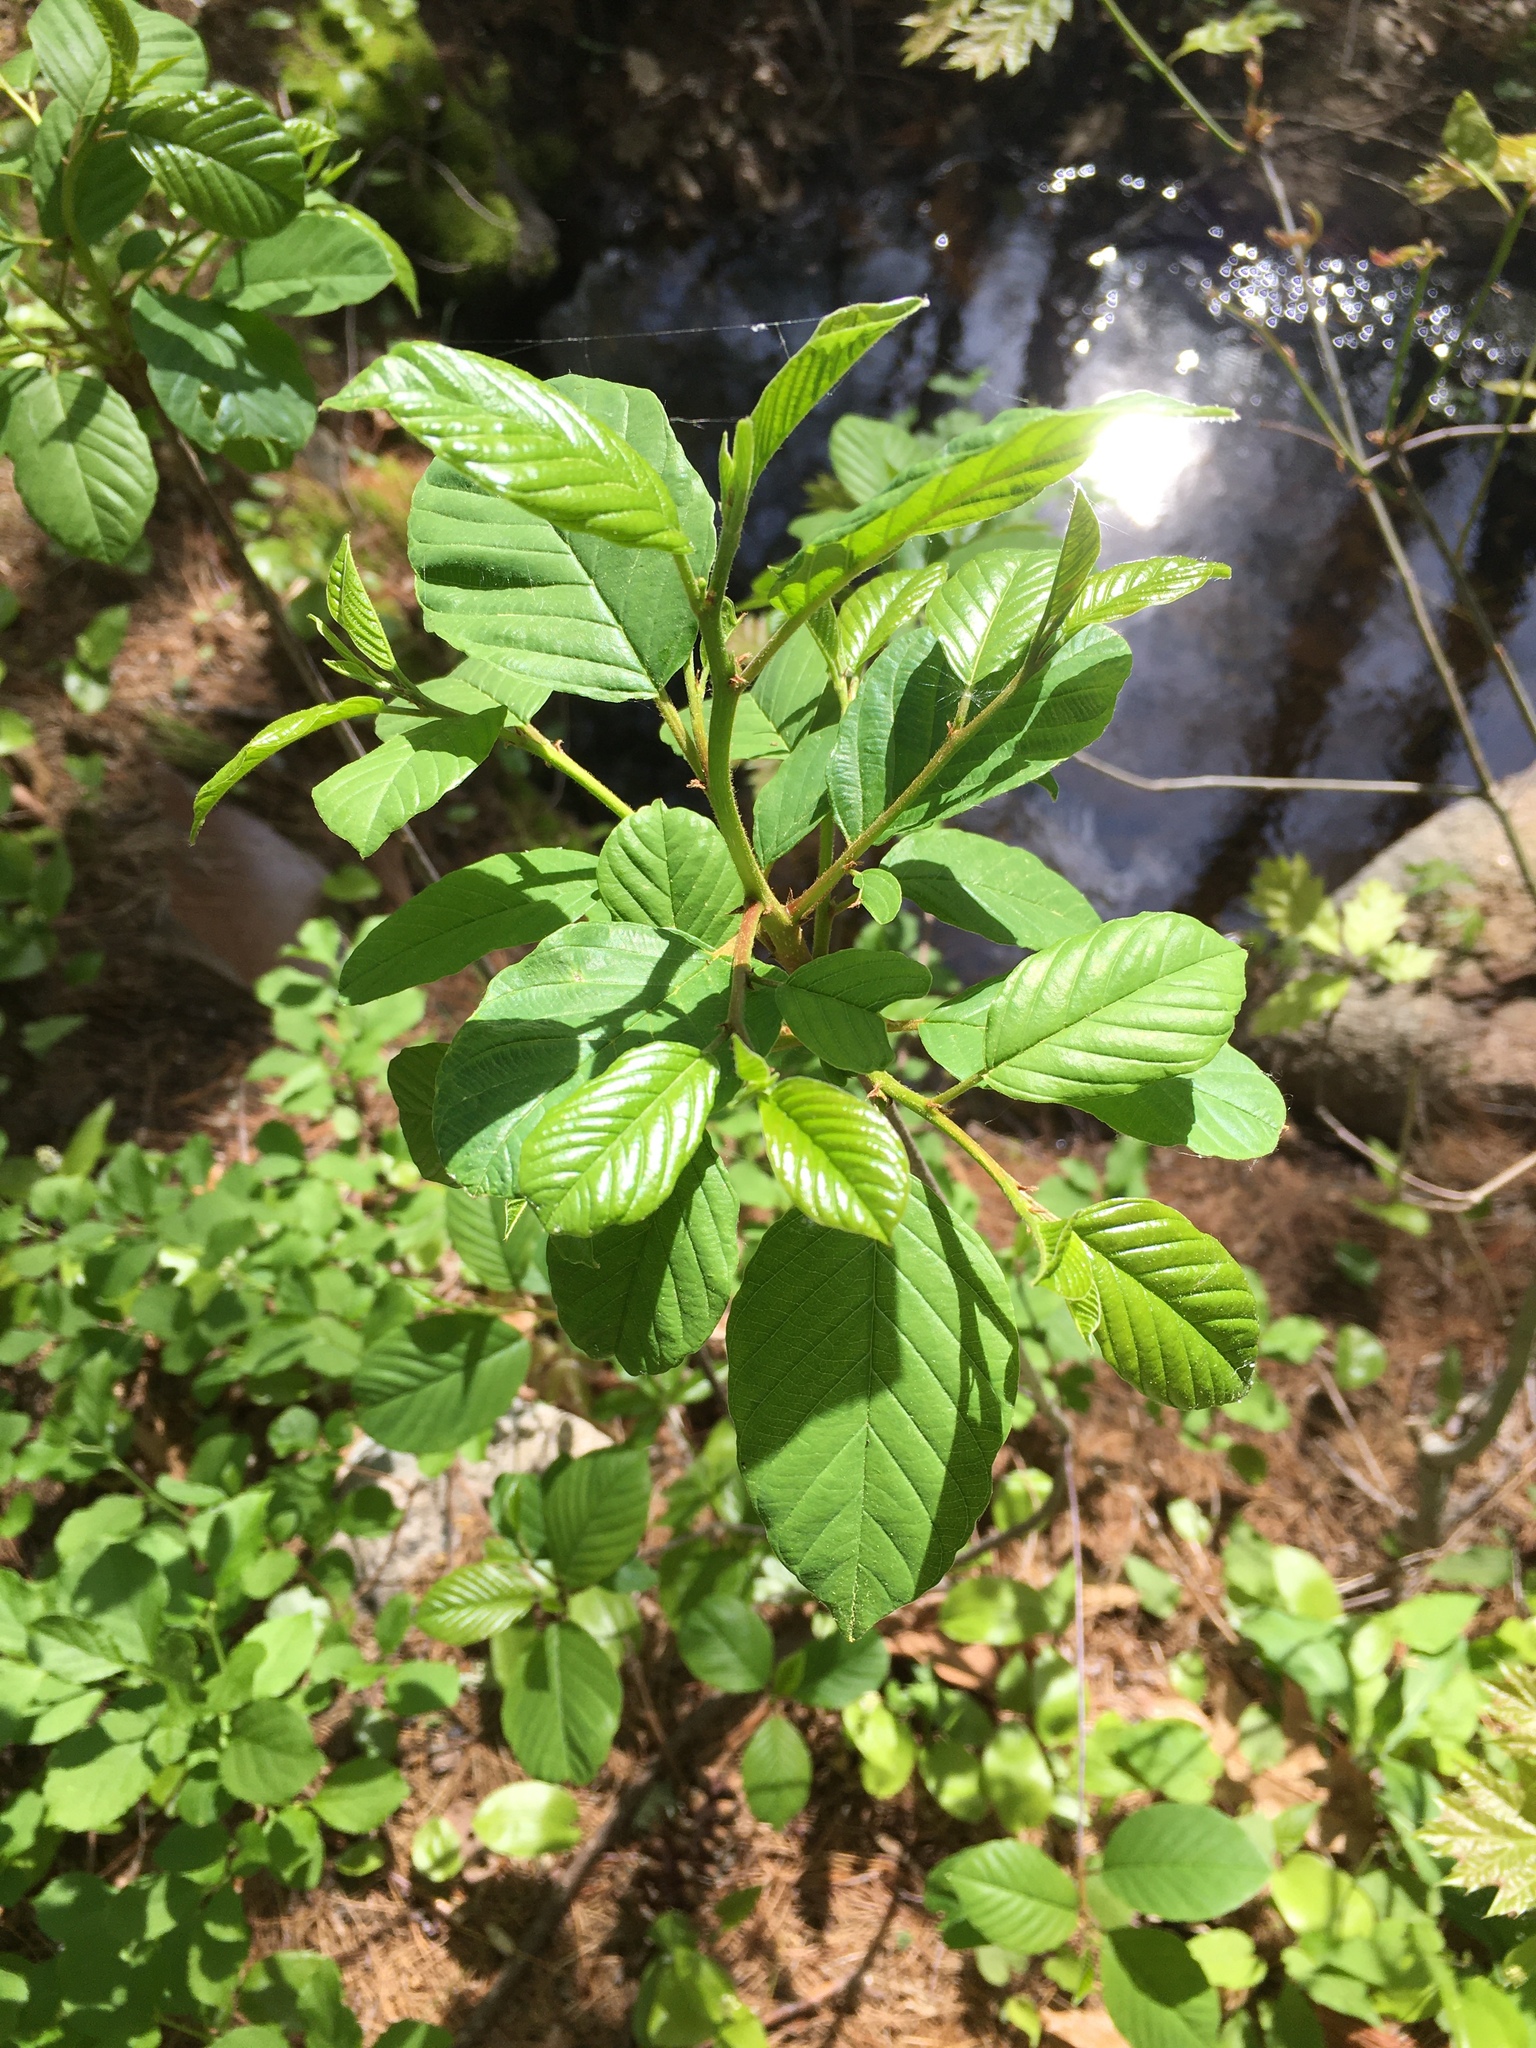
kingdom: Plantae
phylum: Tracheophyta
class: Magnoliopsida
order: Rosales
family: Rhamnaceae
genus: Frangula
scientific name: Frangula alnus
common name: Alder buckthorn
